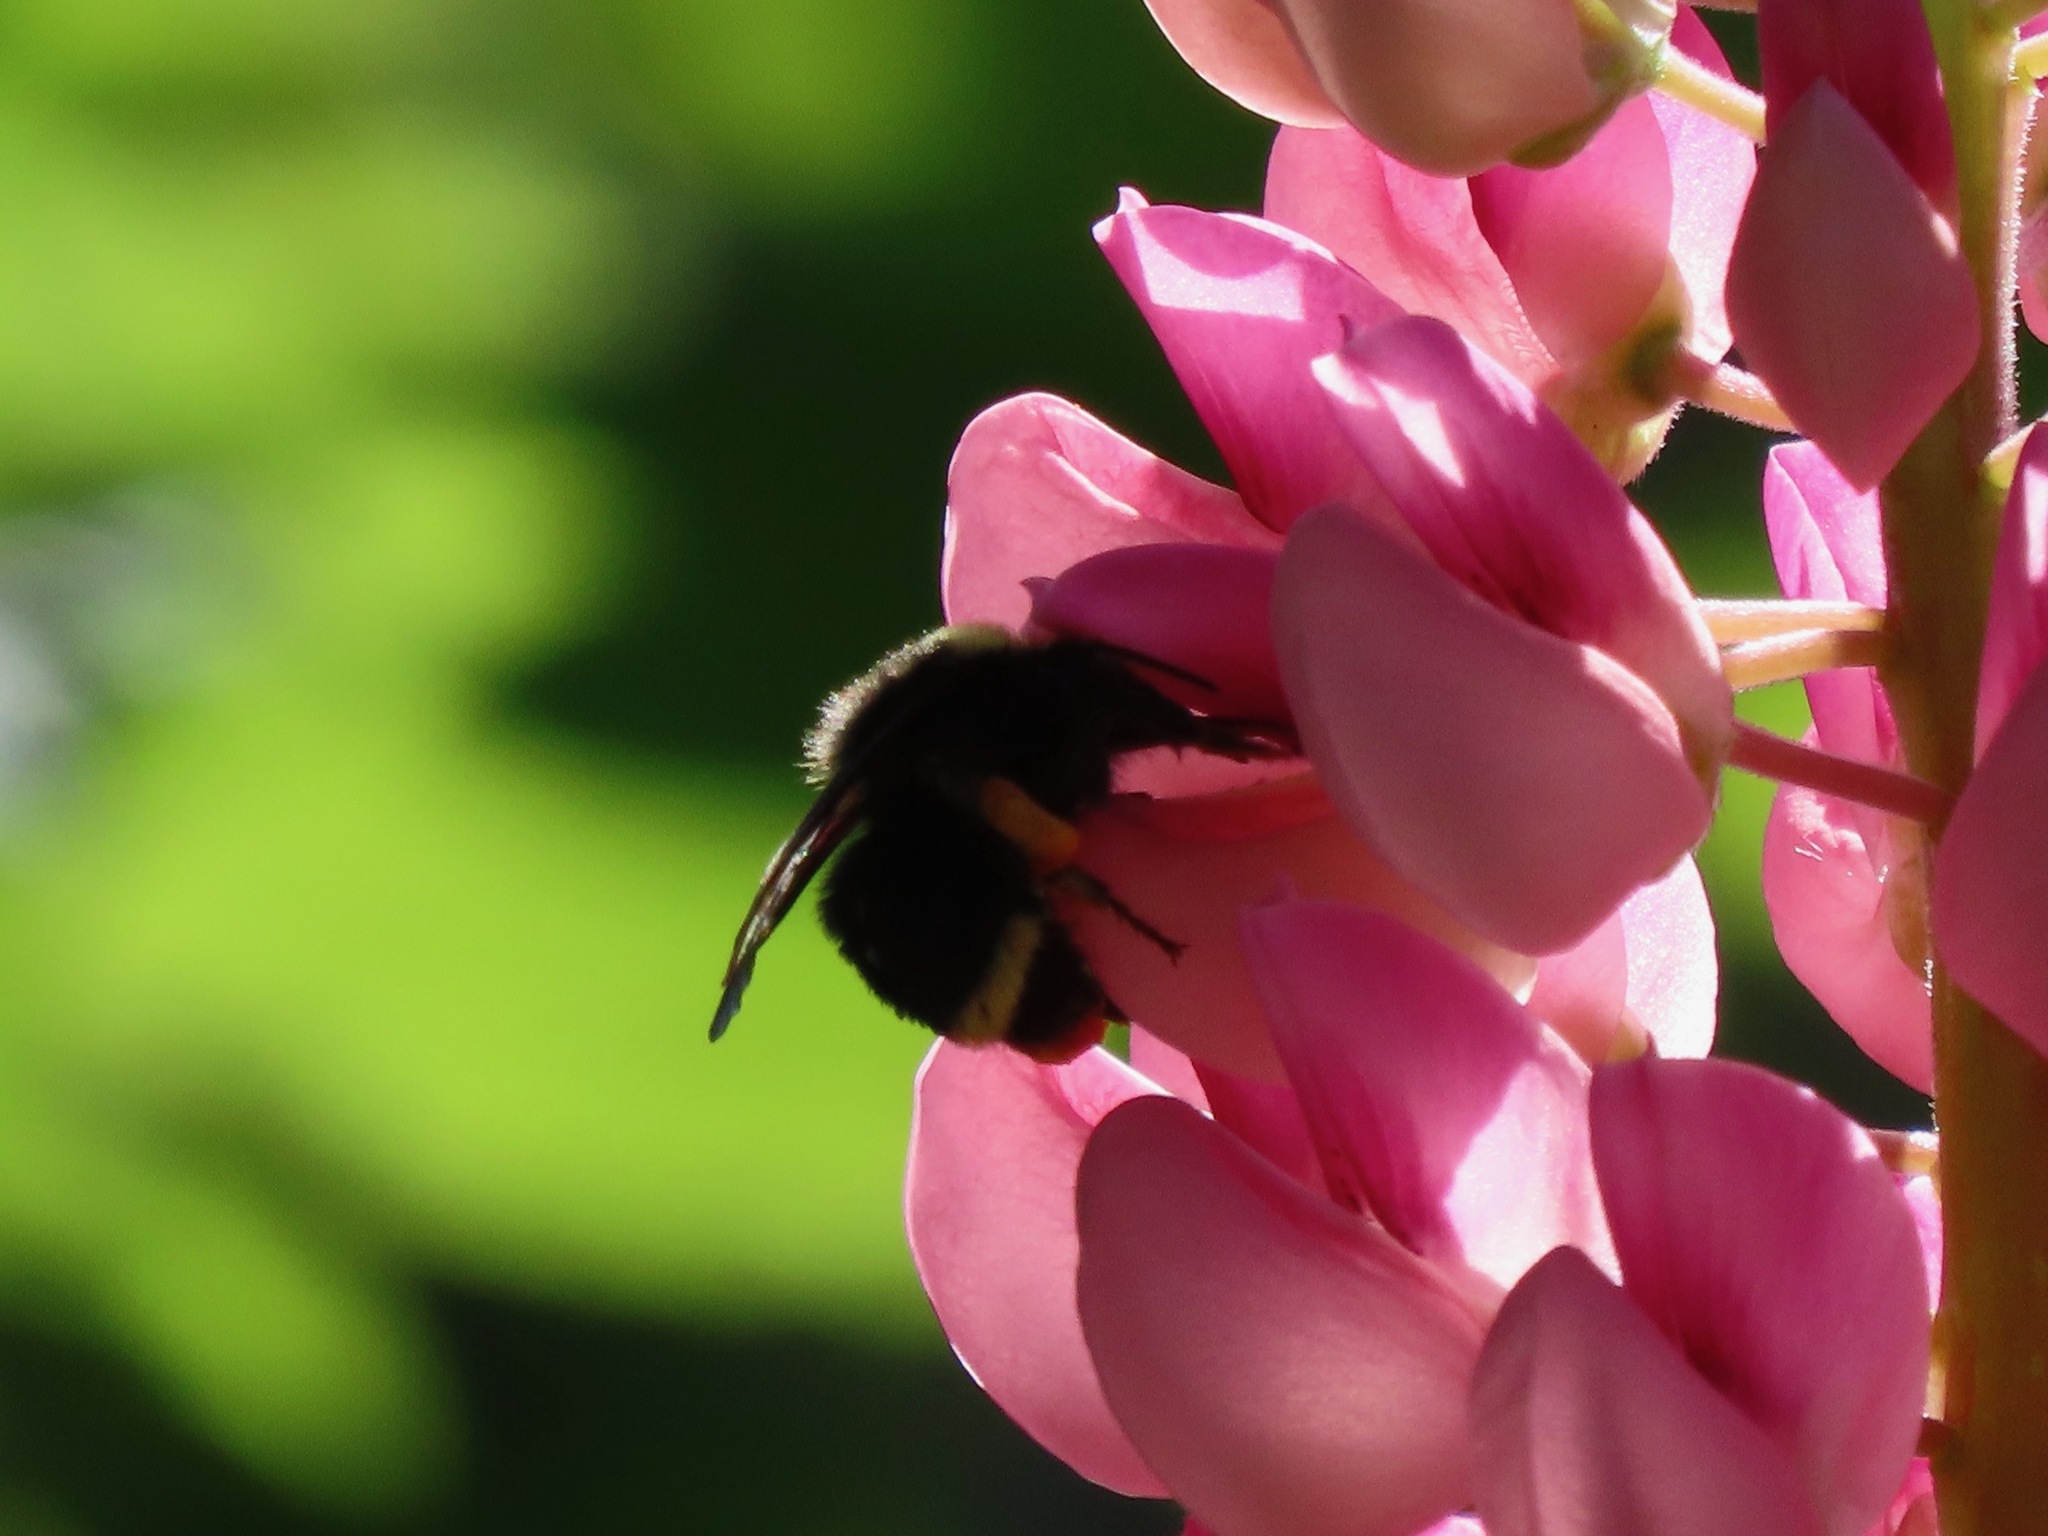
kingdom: Animalia
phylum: Arthropoda
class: Insecta
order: Hymenoptera
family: Apidae
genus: Bombus
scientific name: Bombus vosnesenskii
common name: Vosnesensky bumble bee
